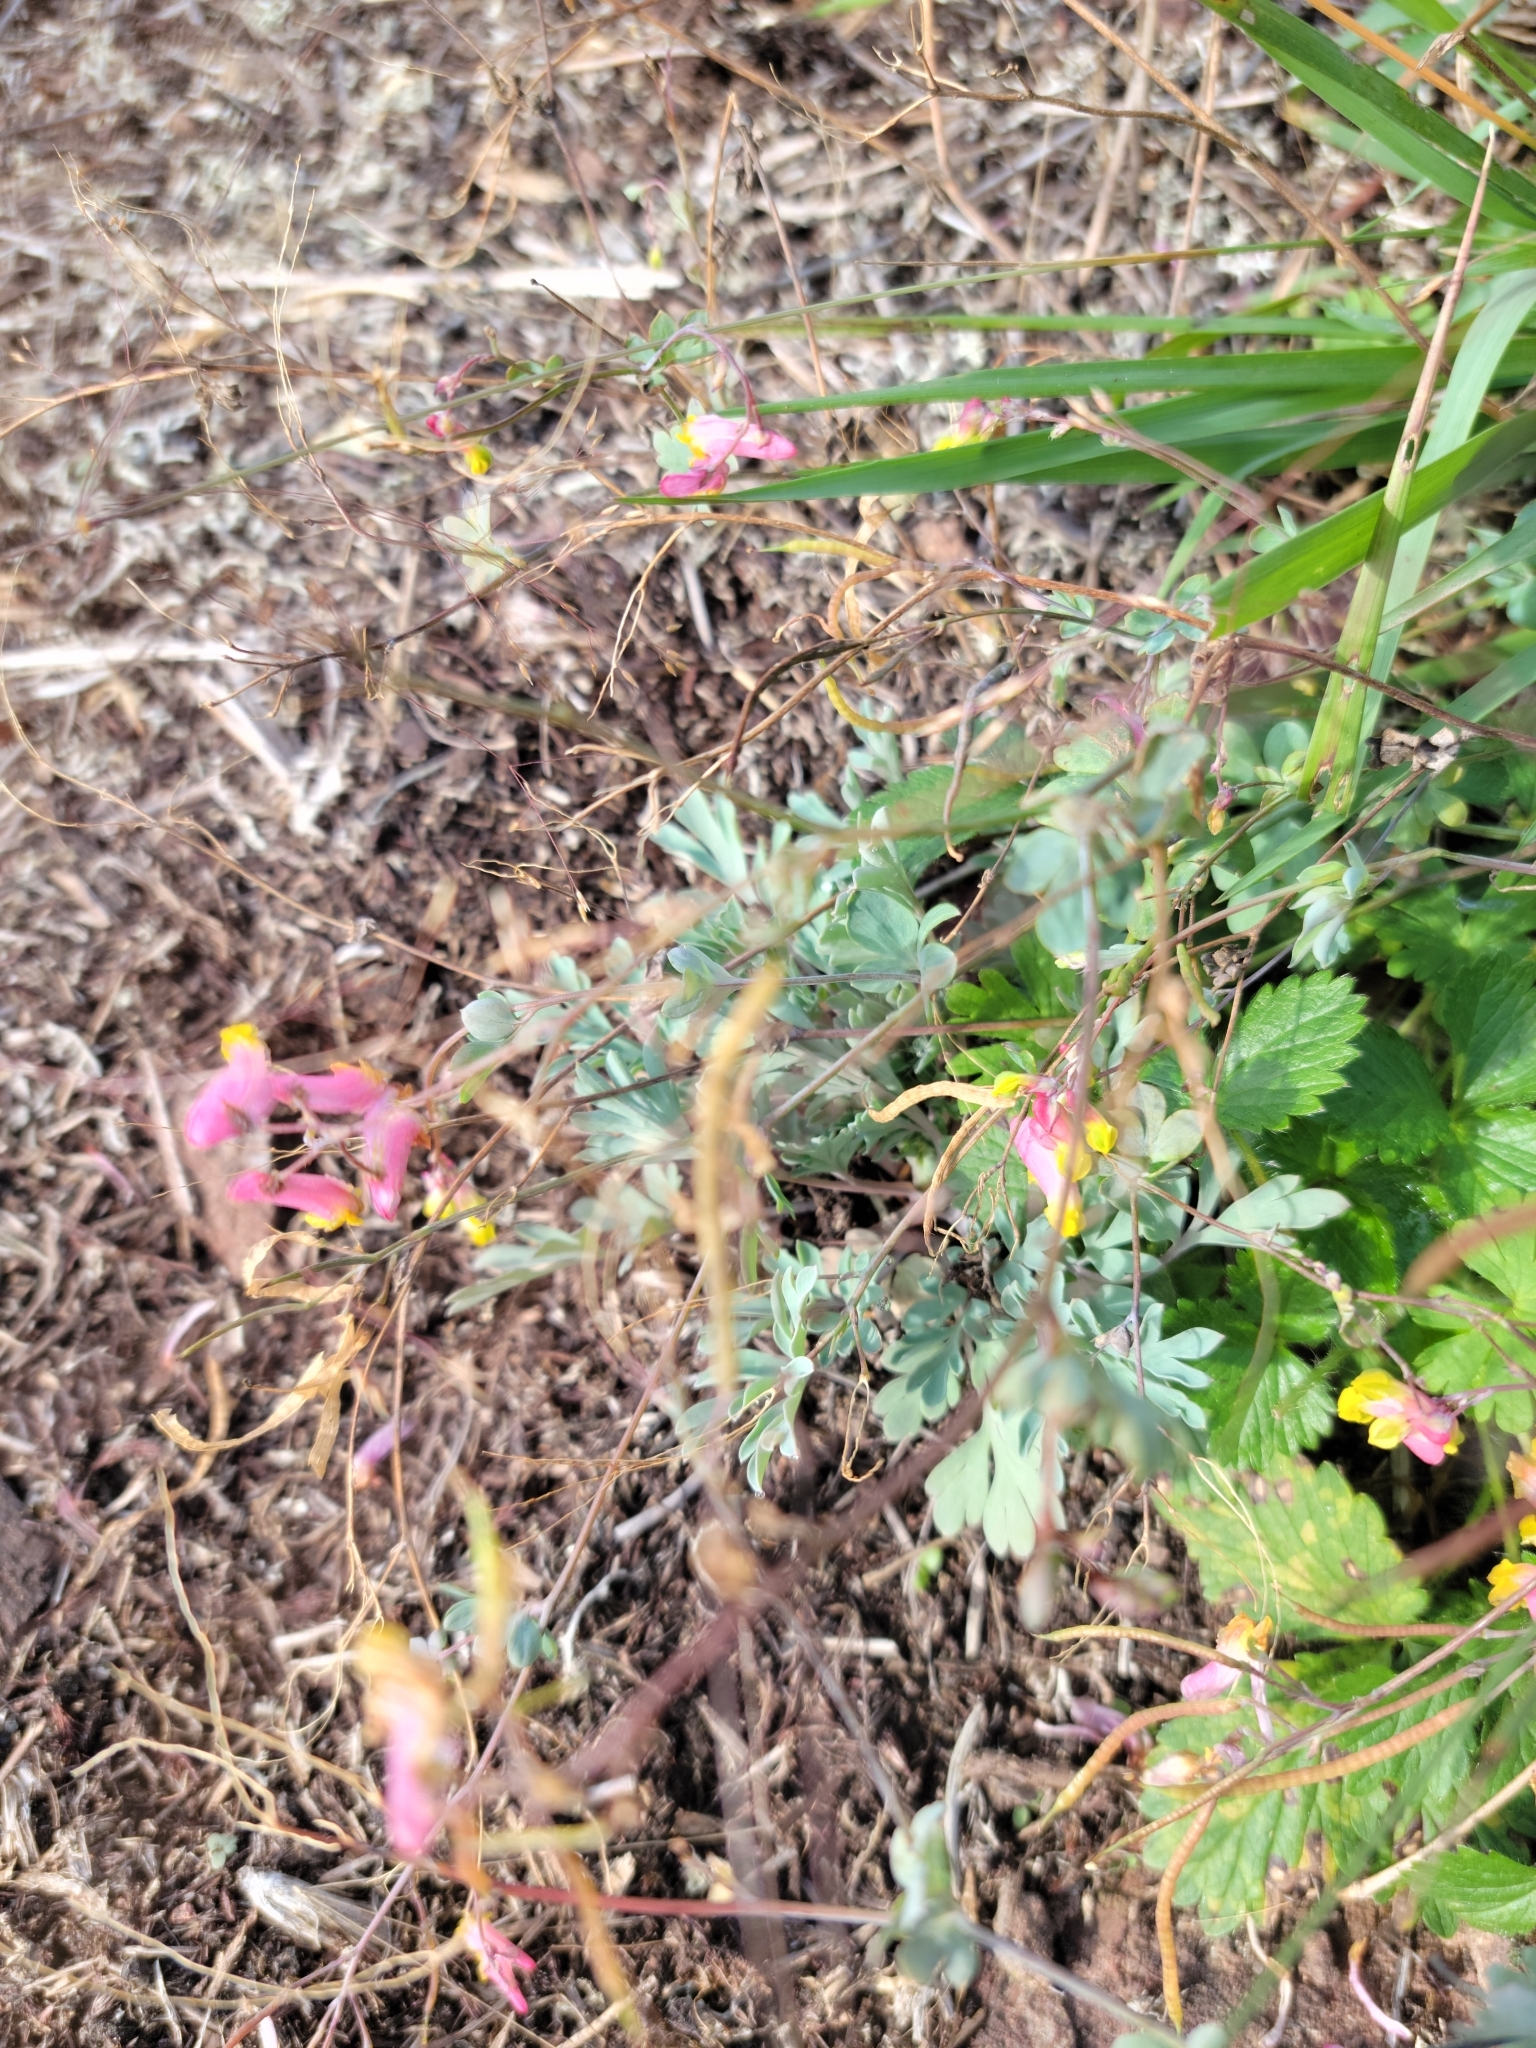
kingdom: Plantae
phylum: Tracheophyta
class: Magnoliopsida
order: Ranunculales
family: Papaveraceae
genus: Capnoides
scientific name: Capnoides sempervirens
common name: Rock harlequin
